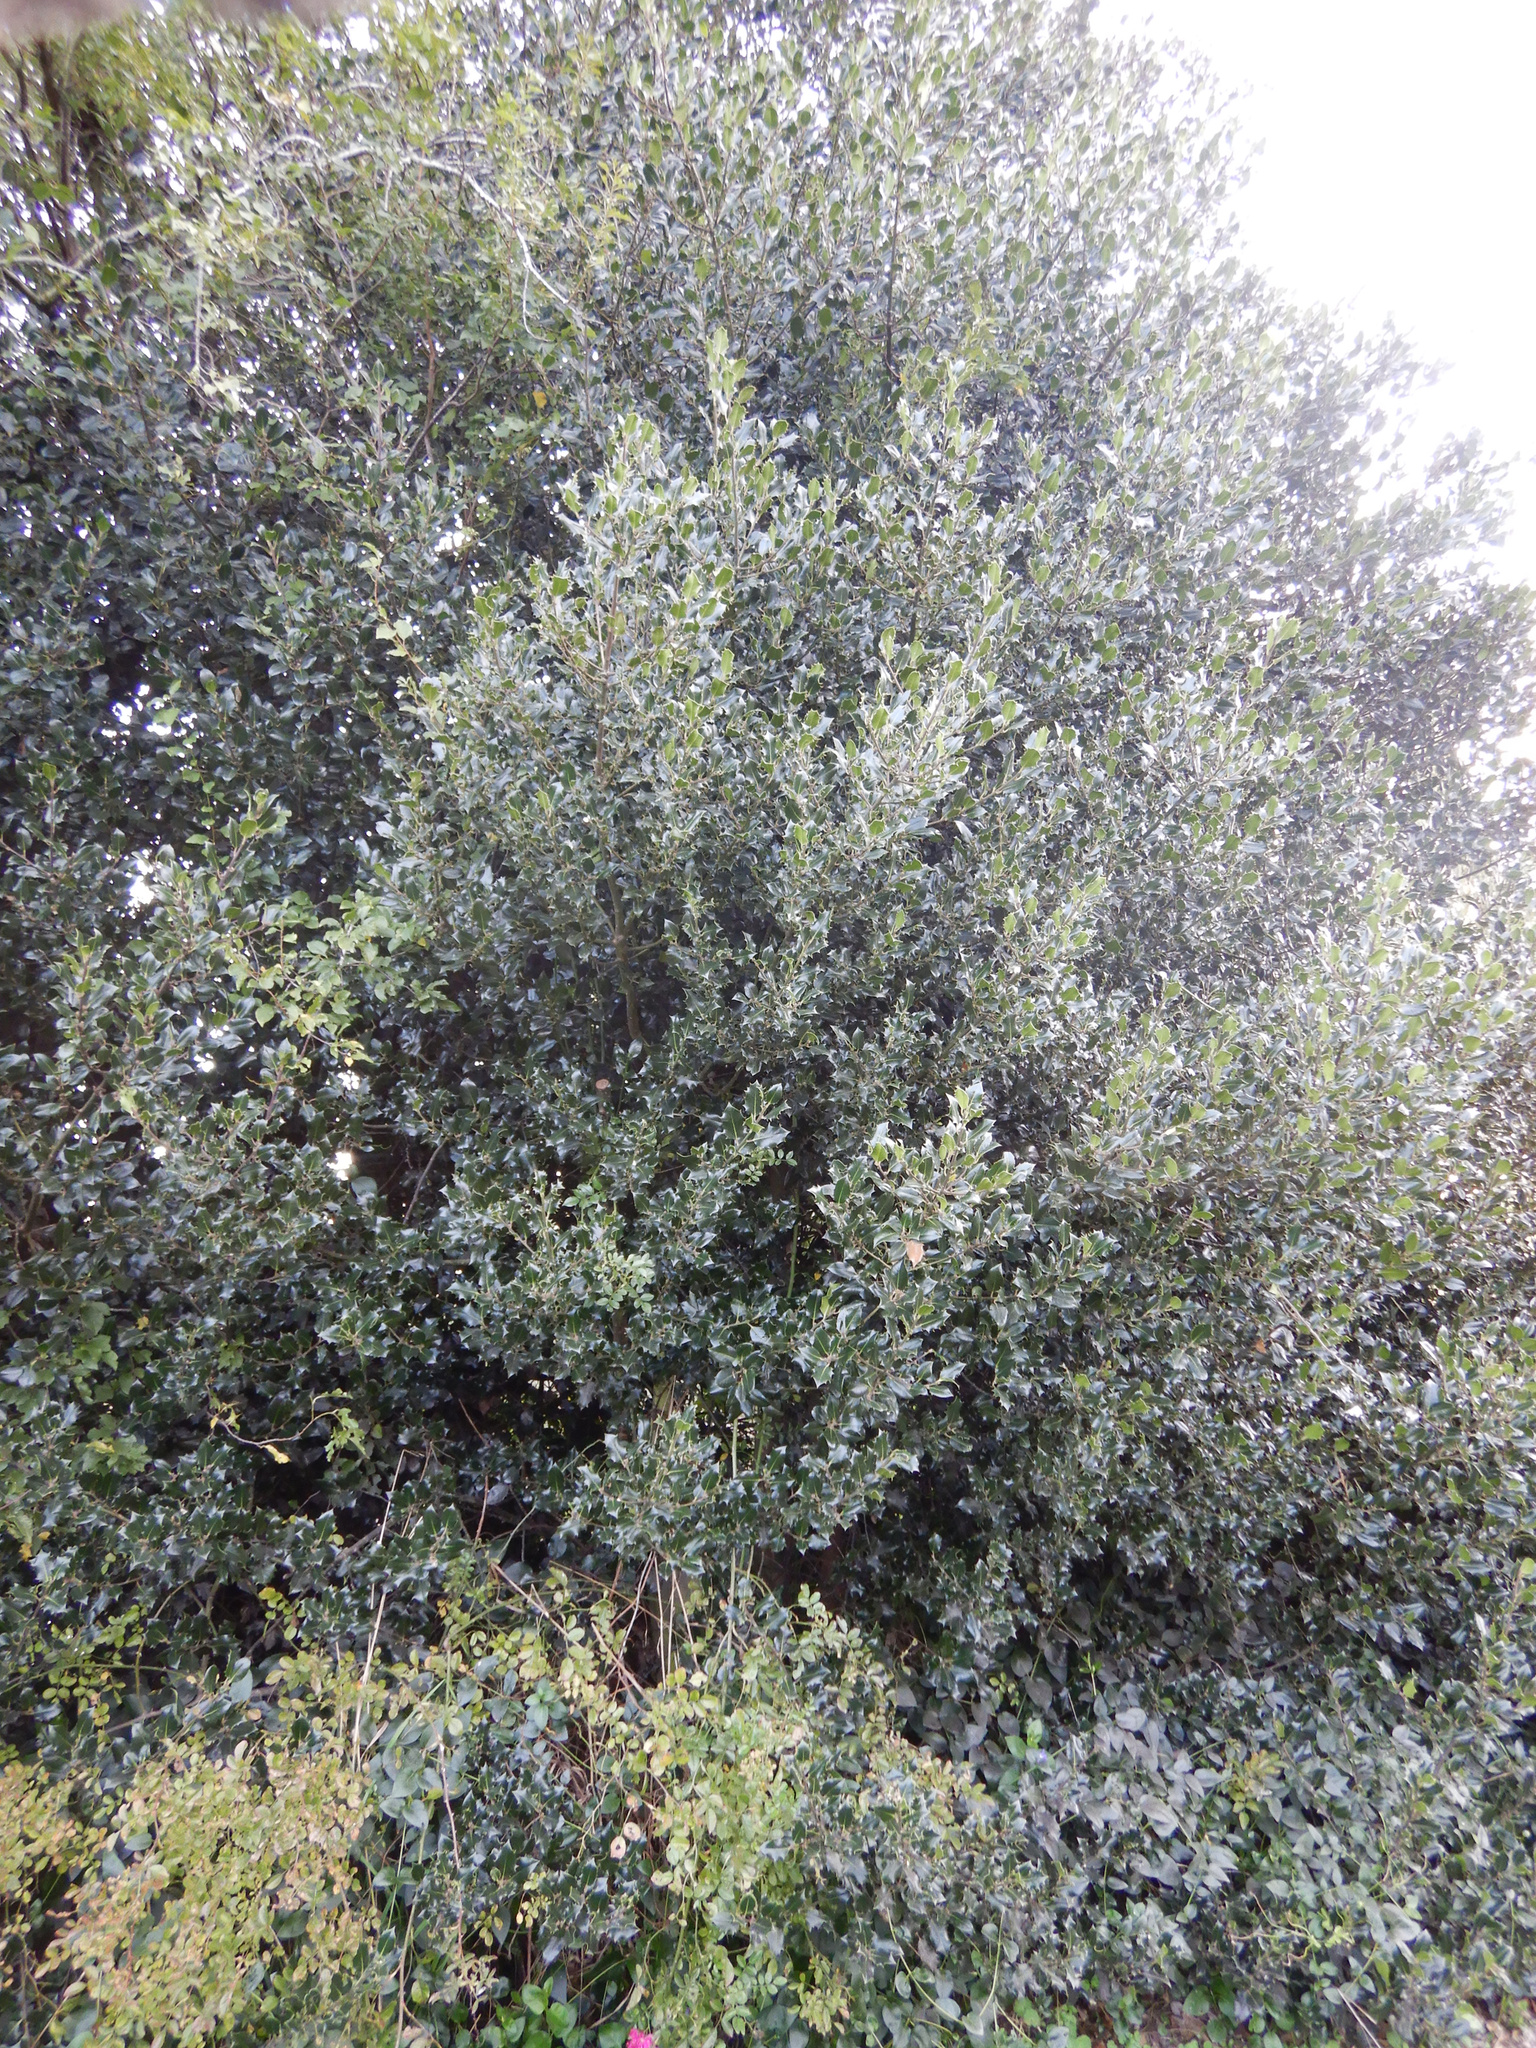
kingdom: Plantae
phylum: Tracheophyta
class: Magnoliopsida
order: Aquifoliales
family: Aquifoliaceae
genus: Ilex
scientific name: Ilex aquifolium
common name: English holly
